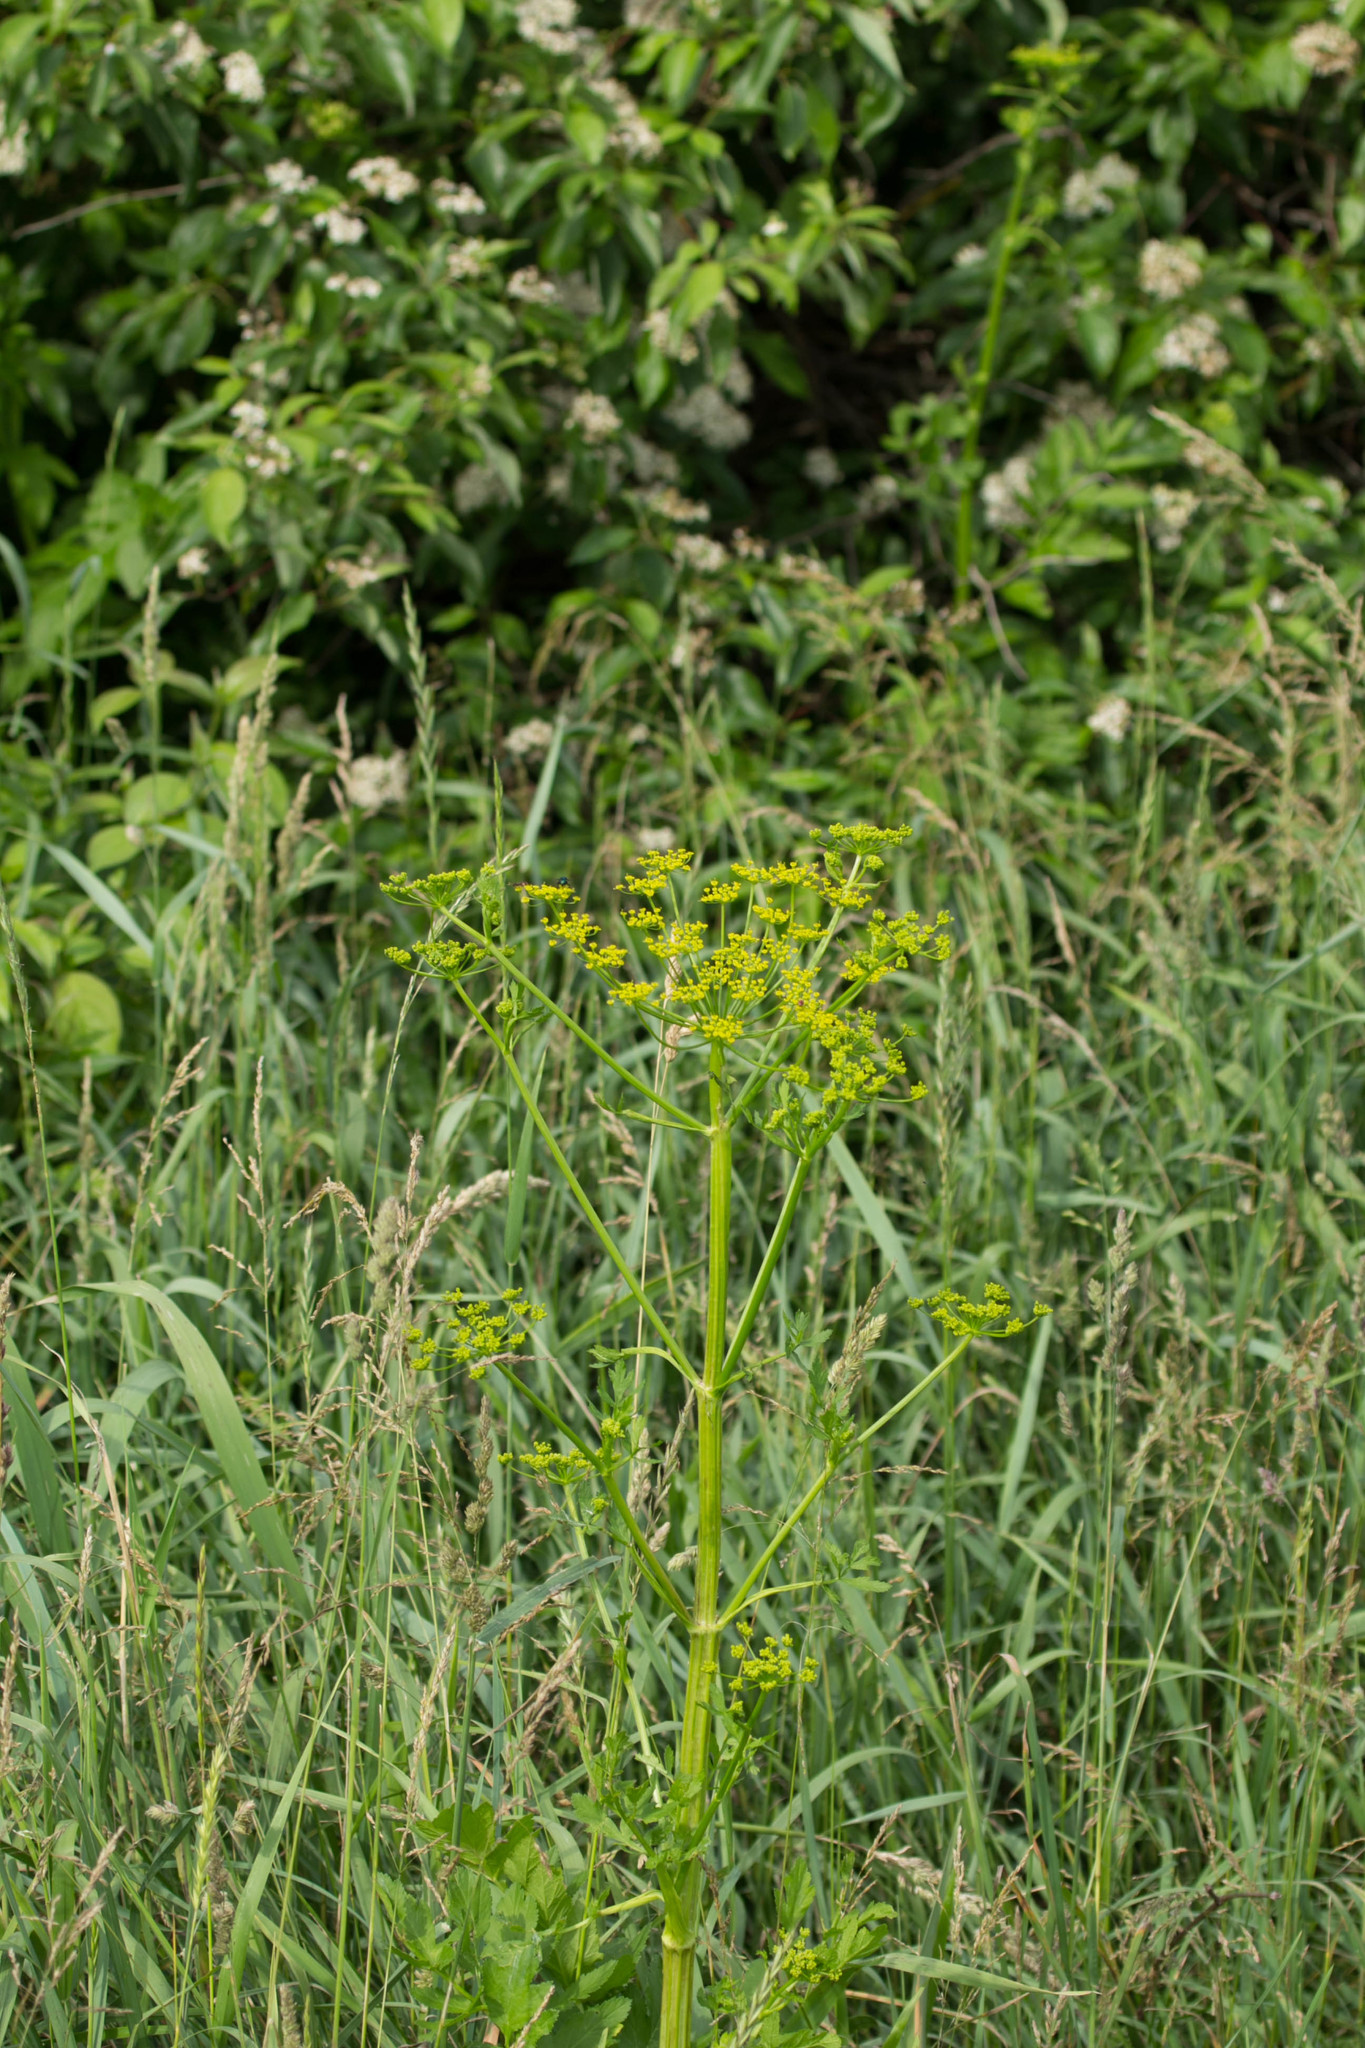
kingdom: Plantae
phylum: Tracheophyta
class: Magnoliopsida
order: Apiales
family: Apiaceae
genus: Pastinaca
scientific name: Pastinaca sativa
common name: Wild parsnip
